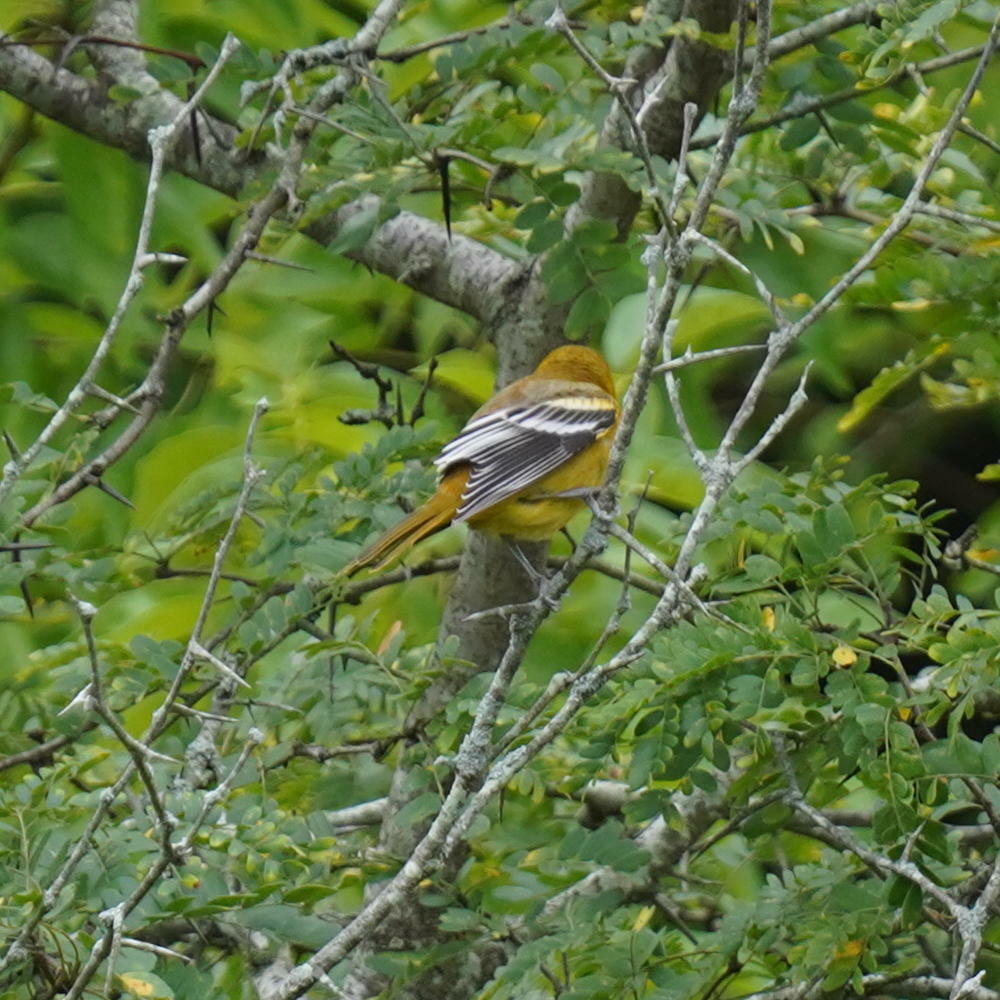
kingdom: Animalia
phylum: Chordata
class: Aves
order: Passeriformes
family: Icteridae
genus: Icterus
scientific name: Icterus galbula
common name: Baltimore oriole
